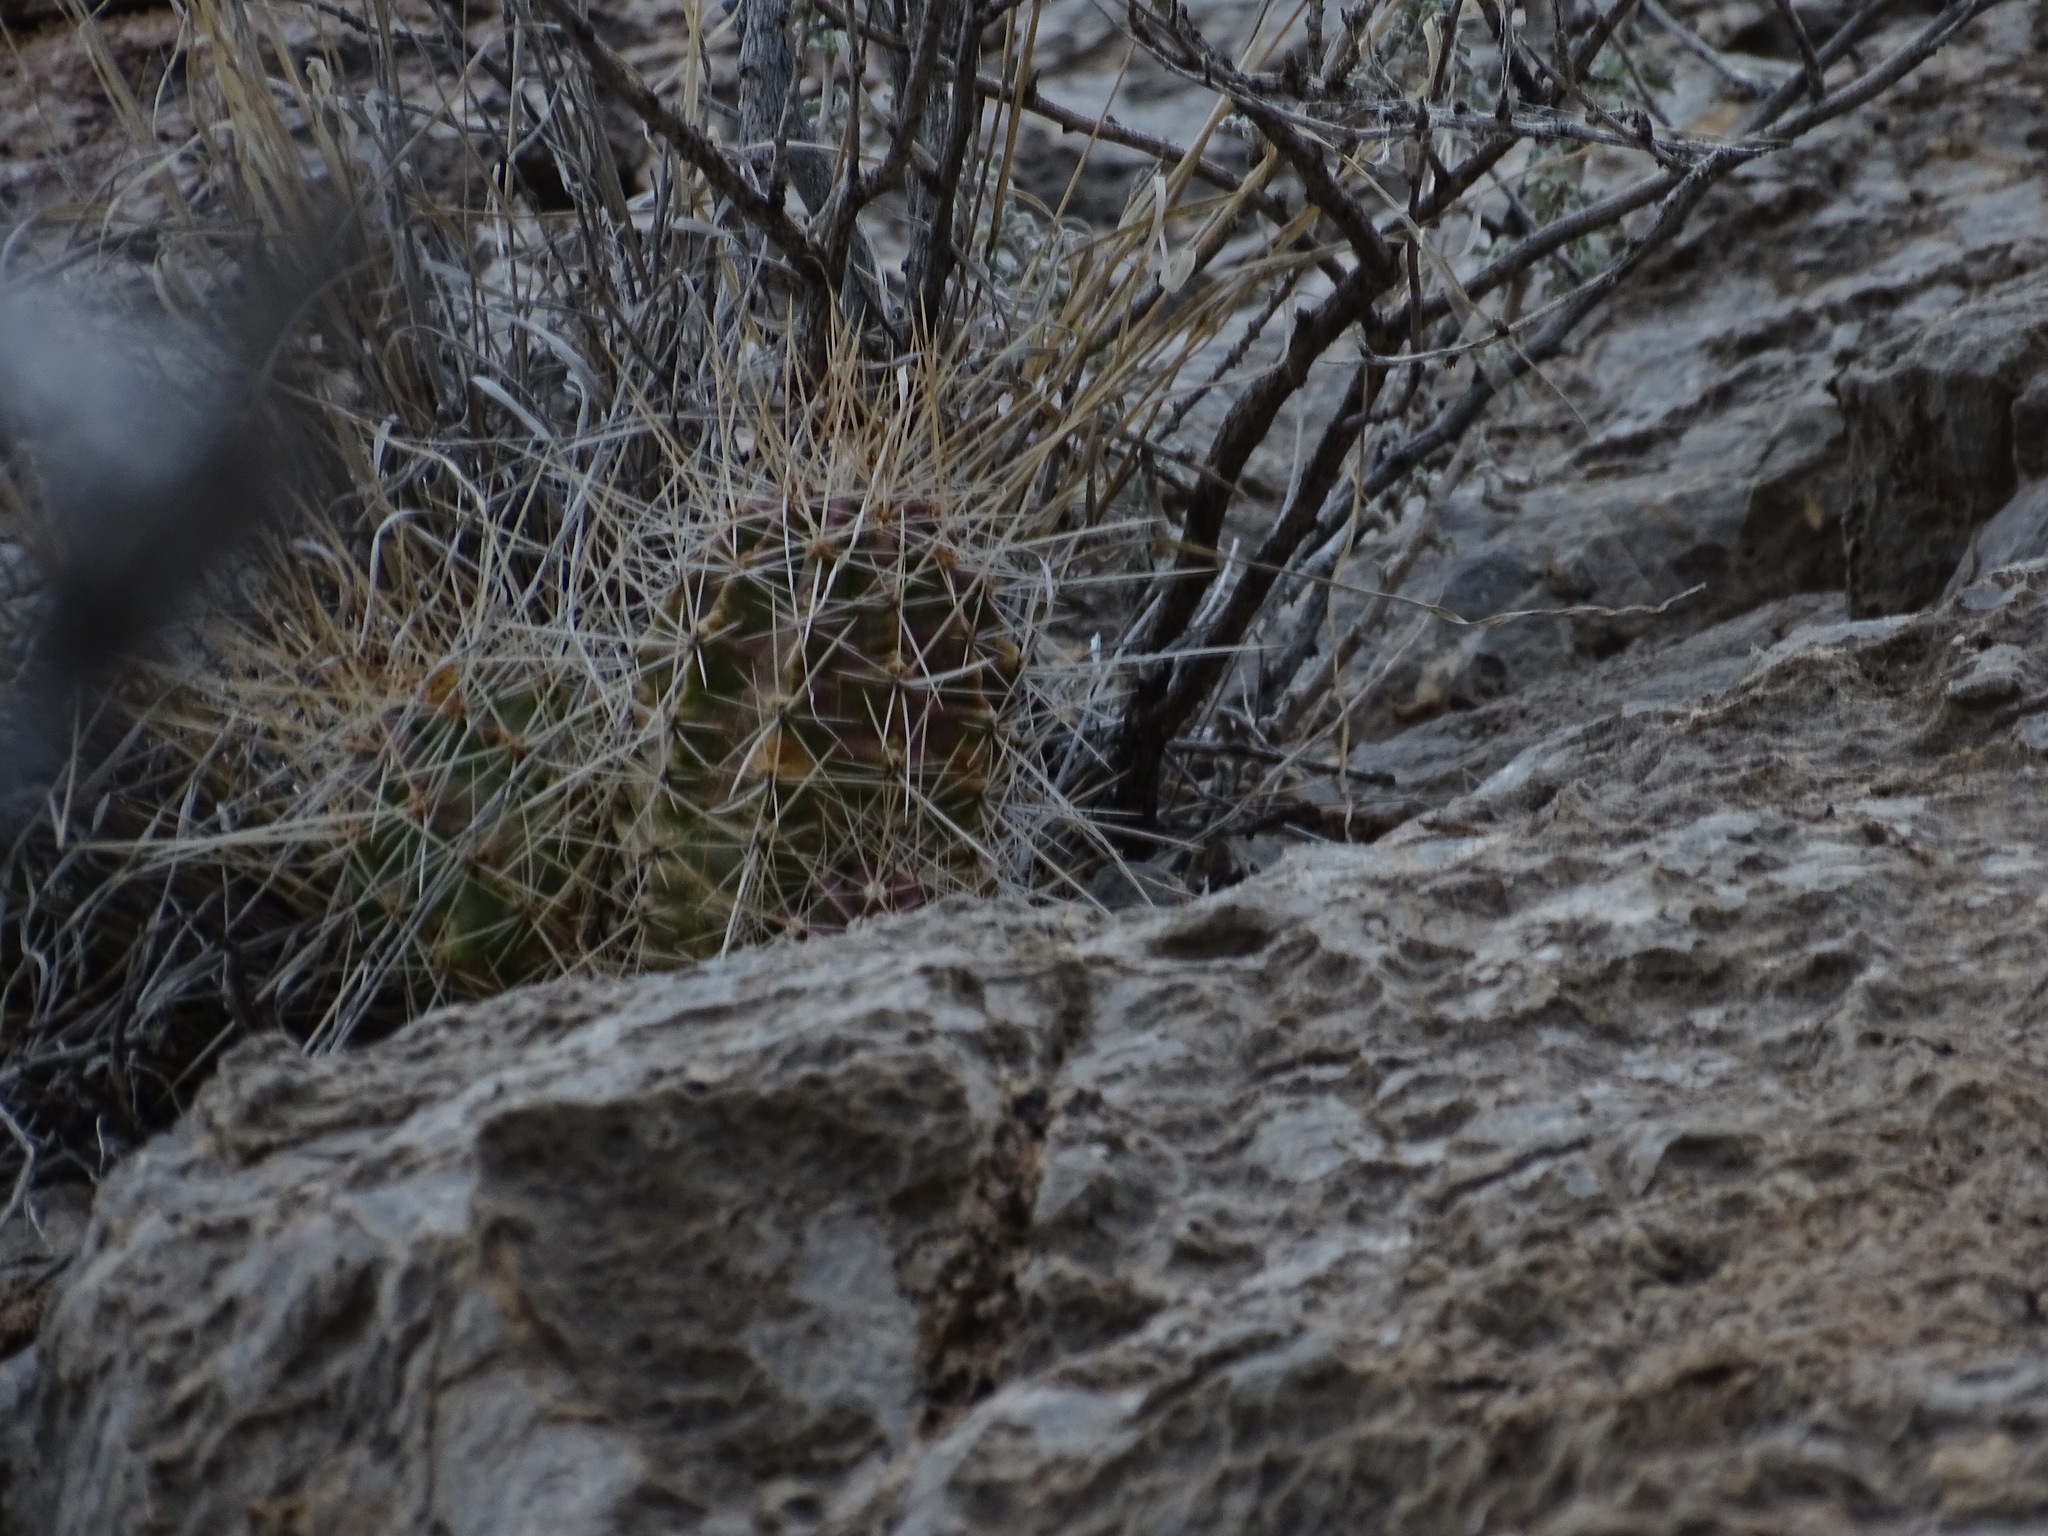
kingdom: Plantae
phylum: Tracheophyta
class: Magnoliopsida
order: Caryophyllales
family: Cactaceae
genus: Echinocereus
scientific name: Echinocereus stramineus
